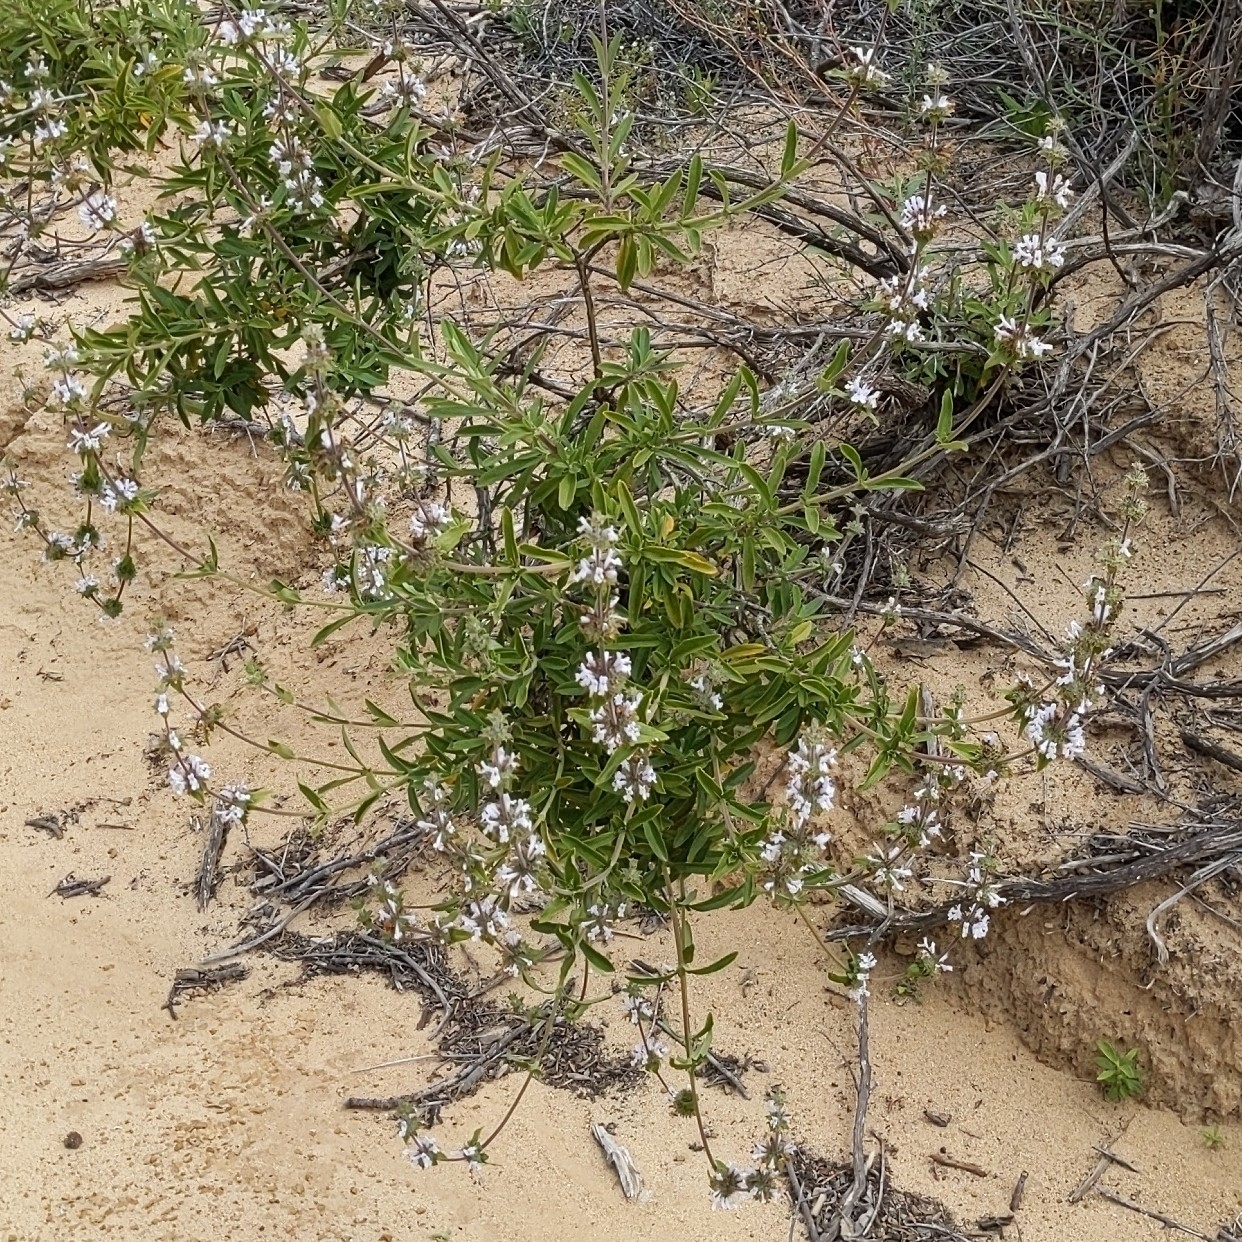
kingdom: Plantae
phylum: Tracheophyta
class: Magnoliopsida
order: Lamiales
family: Lamiaceae
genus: Salvia
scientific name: Salvia mellifera
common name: Black sage
